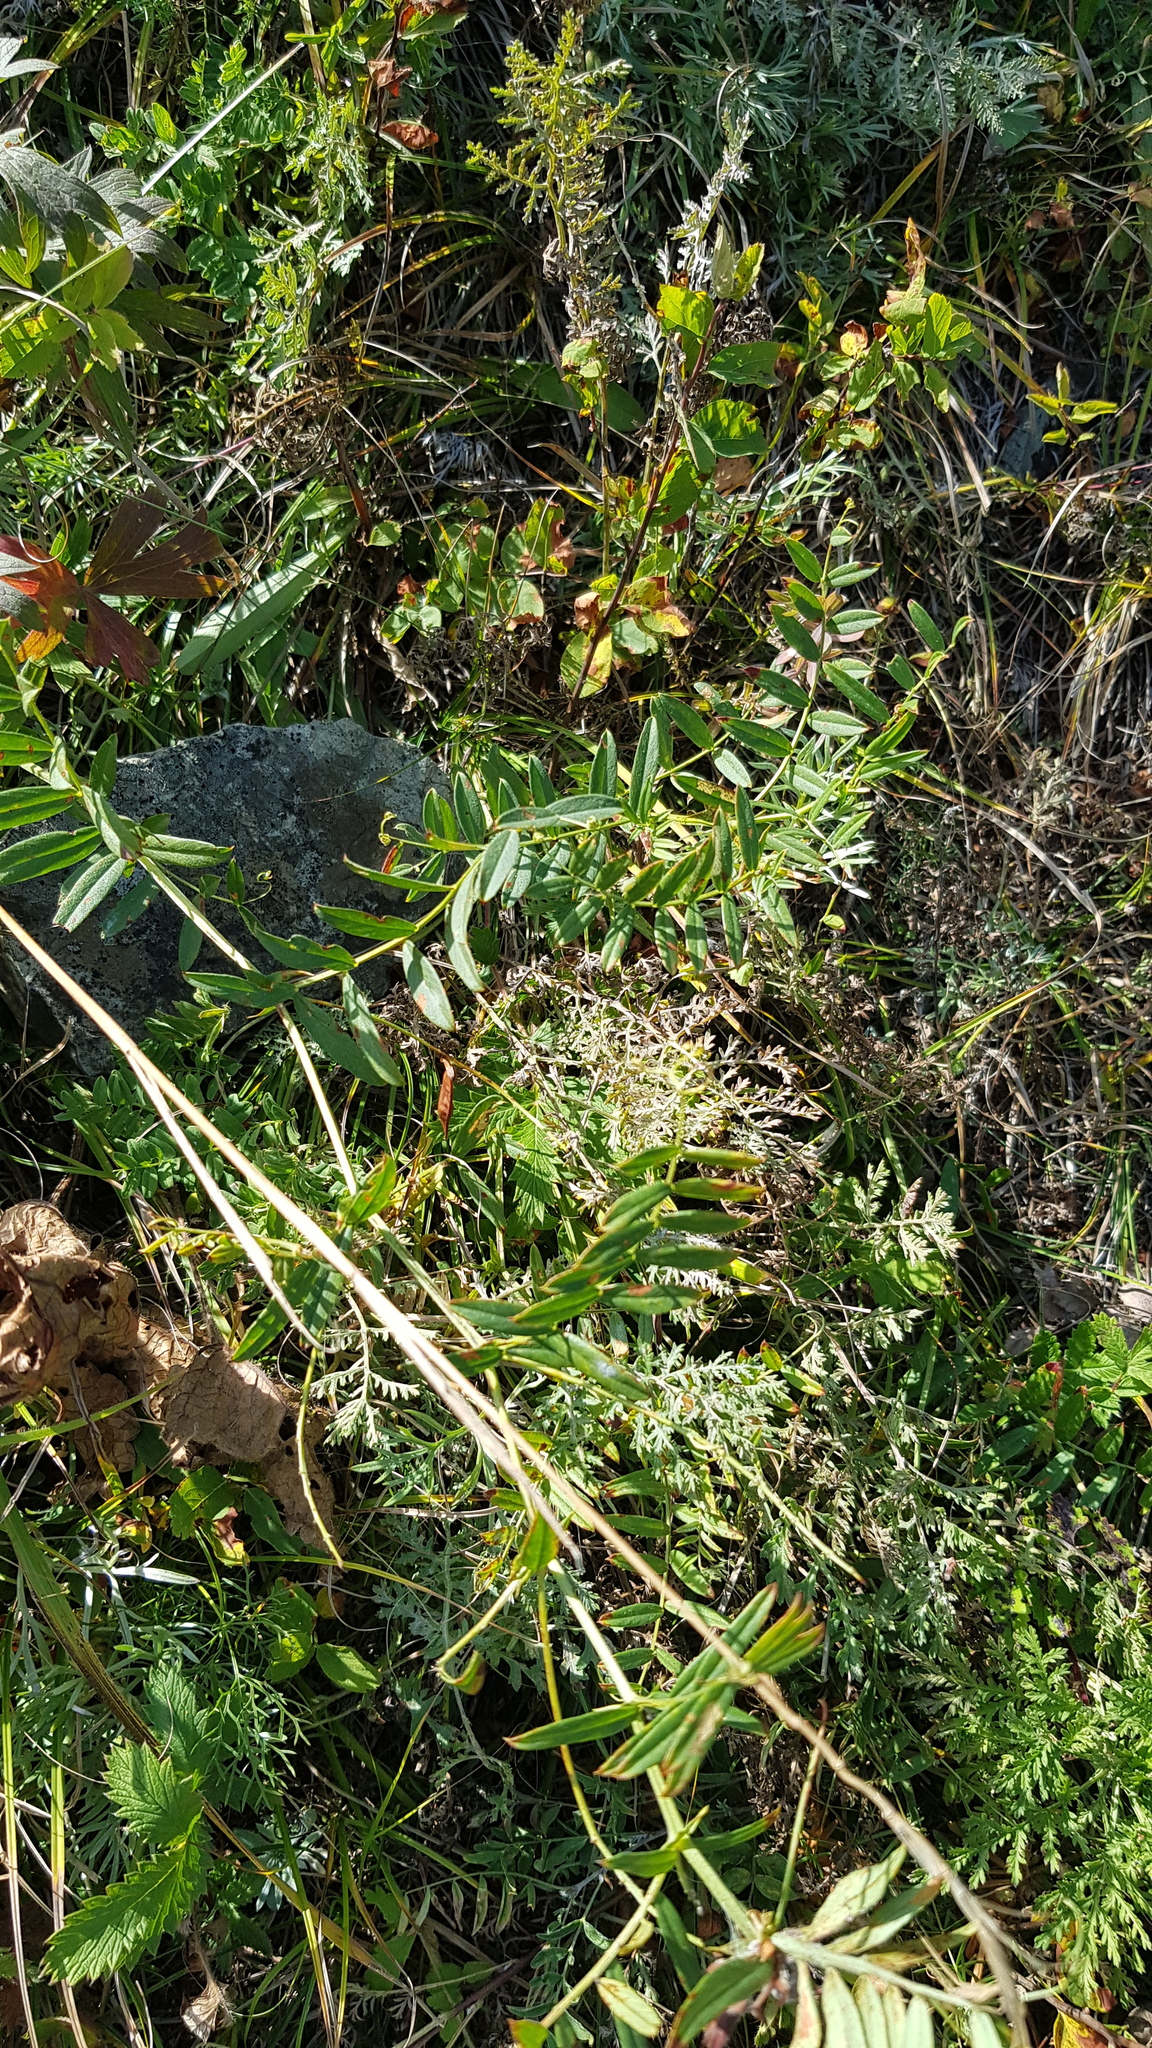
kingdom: Plantae
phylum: Tracheophyta
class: Magnoliopsida
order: Fabales
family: Fabaceae
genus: Vicia
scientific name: Vicia amoena
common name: Cheder ebs
